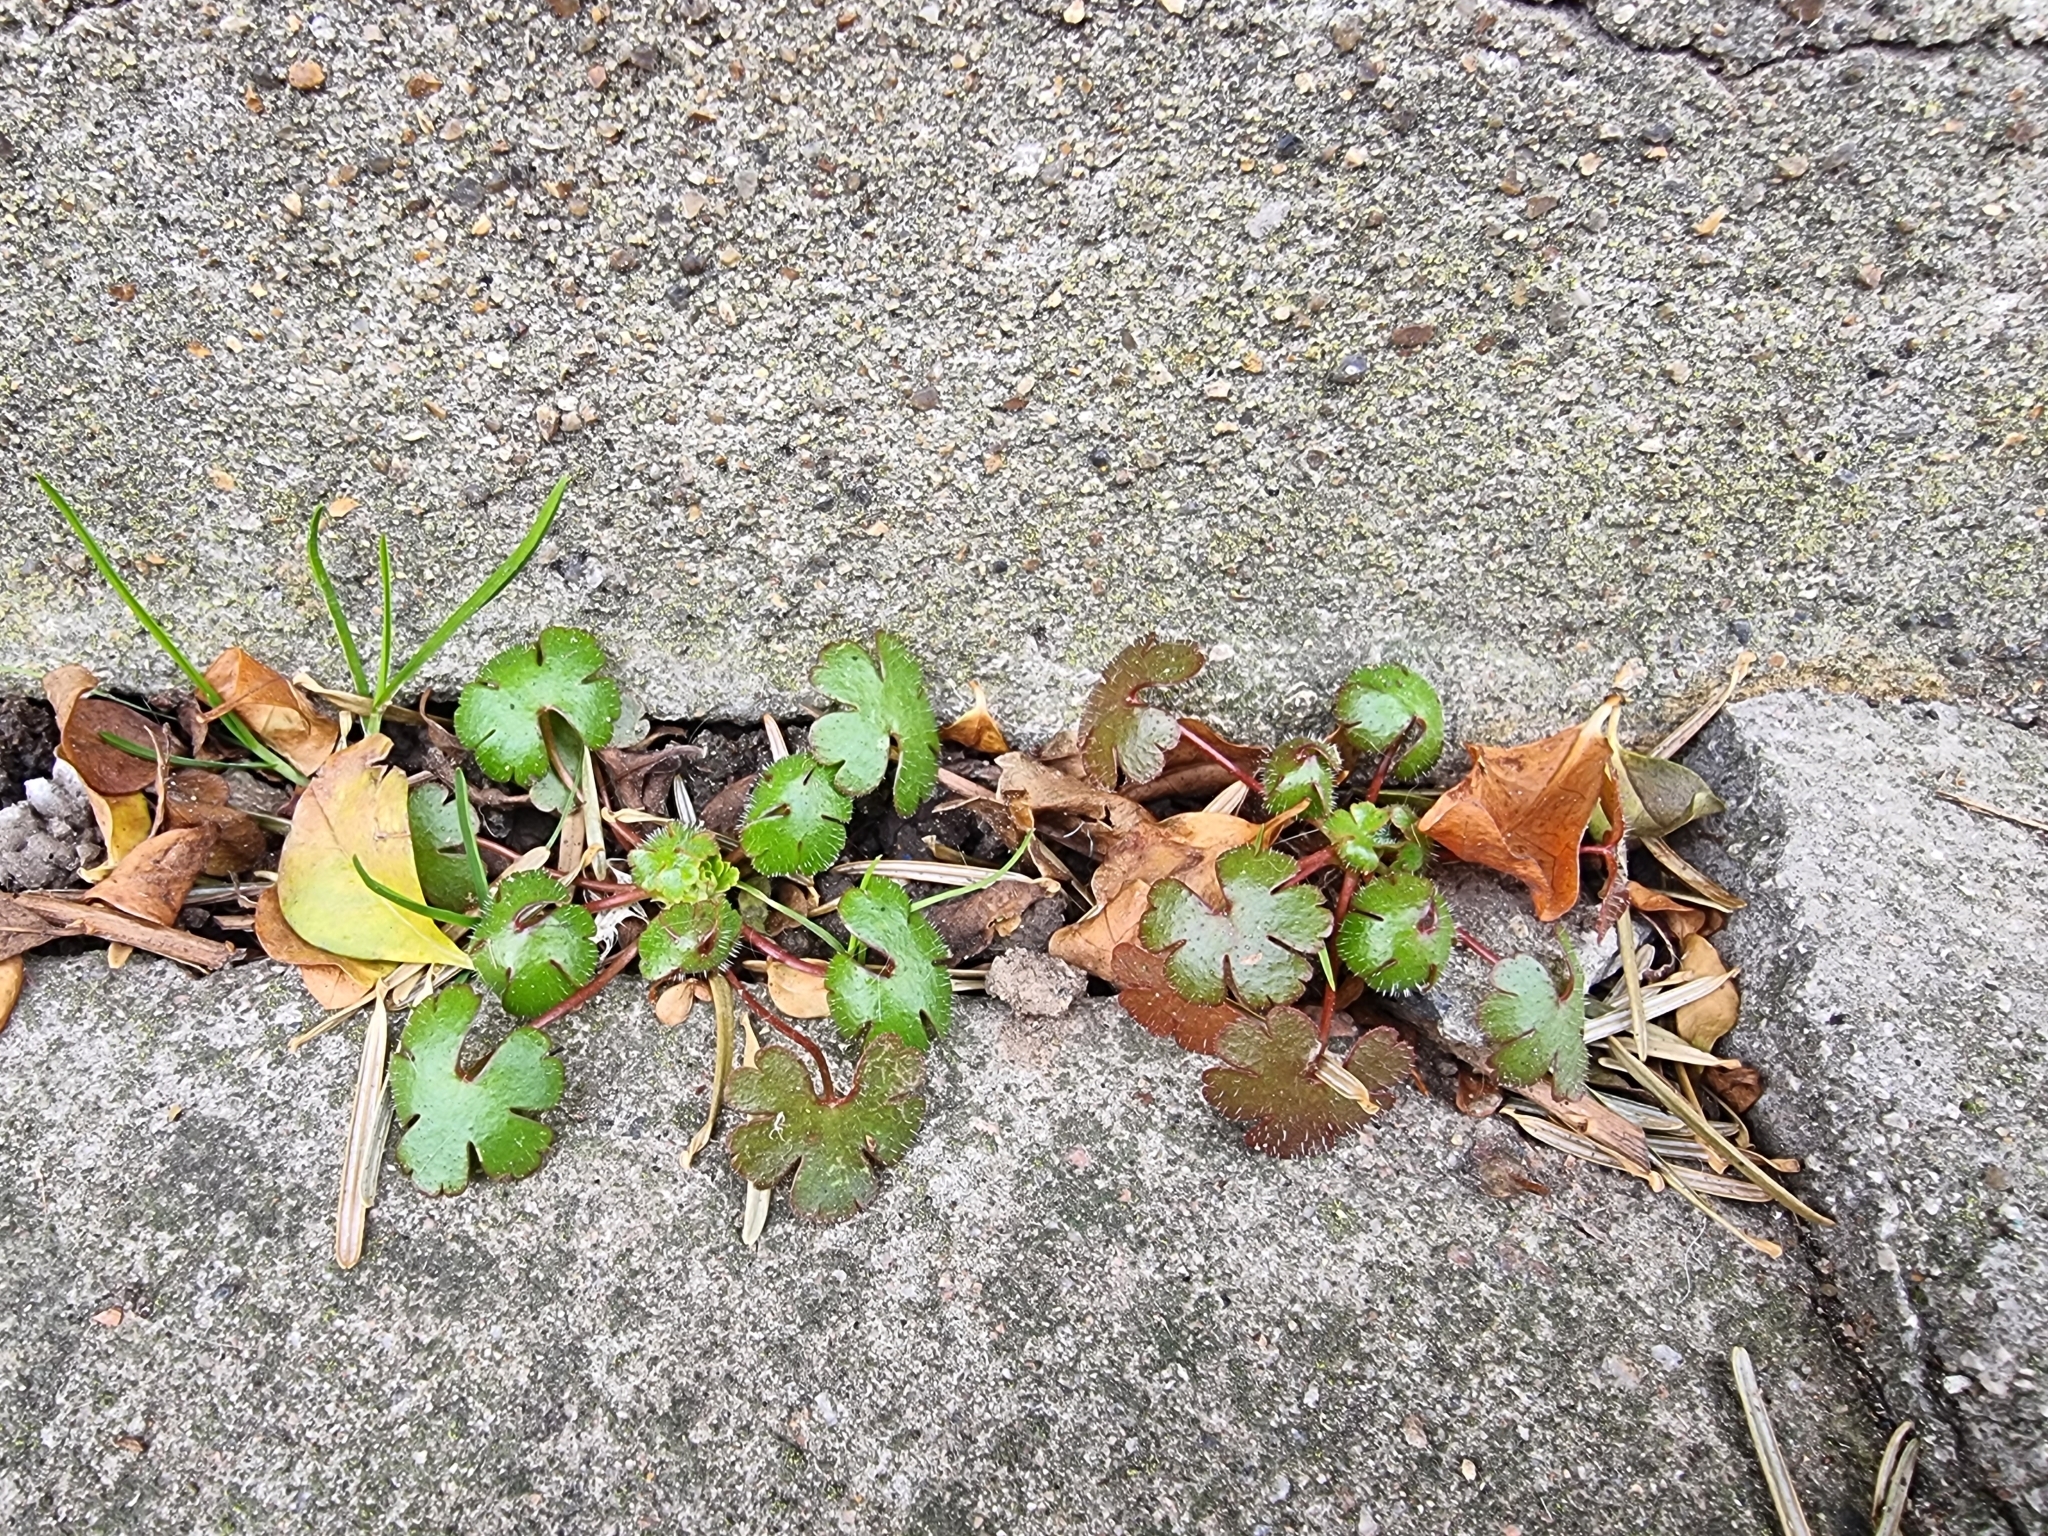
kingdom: Plantae
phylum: Tracheophyta
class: Magnoliopsida
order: Geraniales
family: Geraniaceae
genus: Geranium
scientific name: Geranium lucidum
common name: Shining crane's-bill
